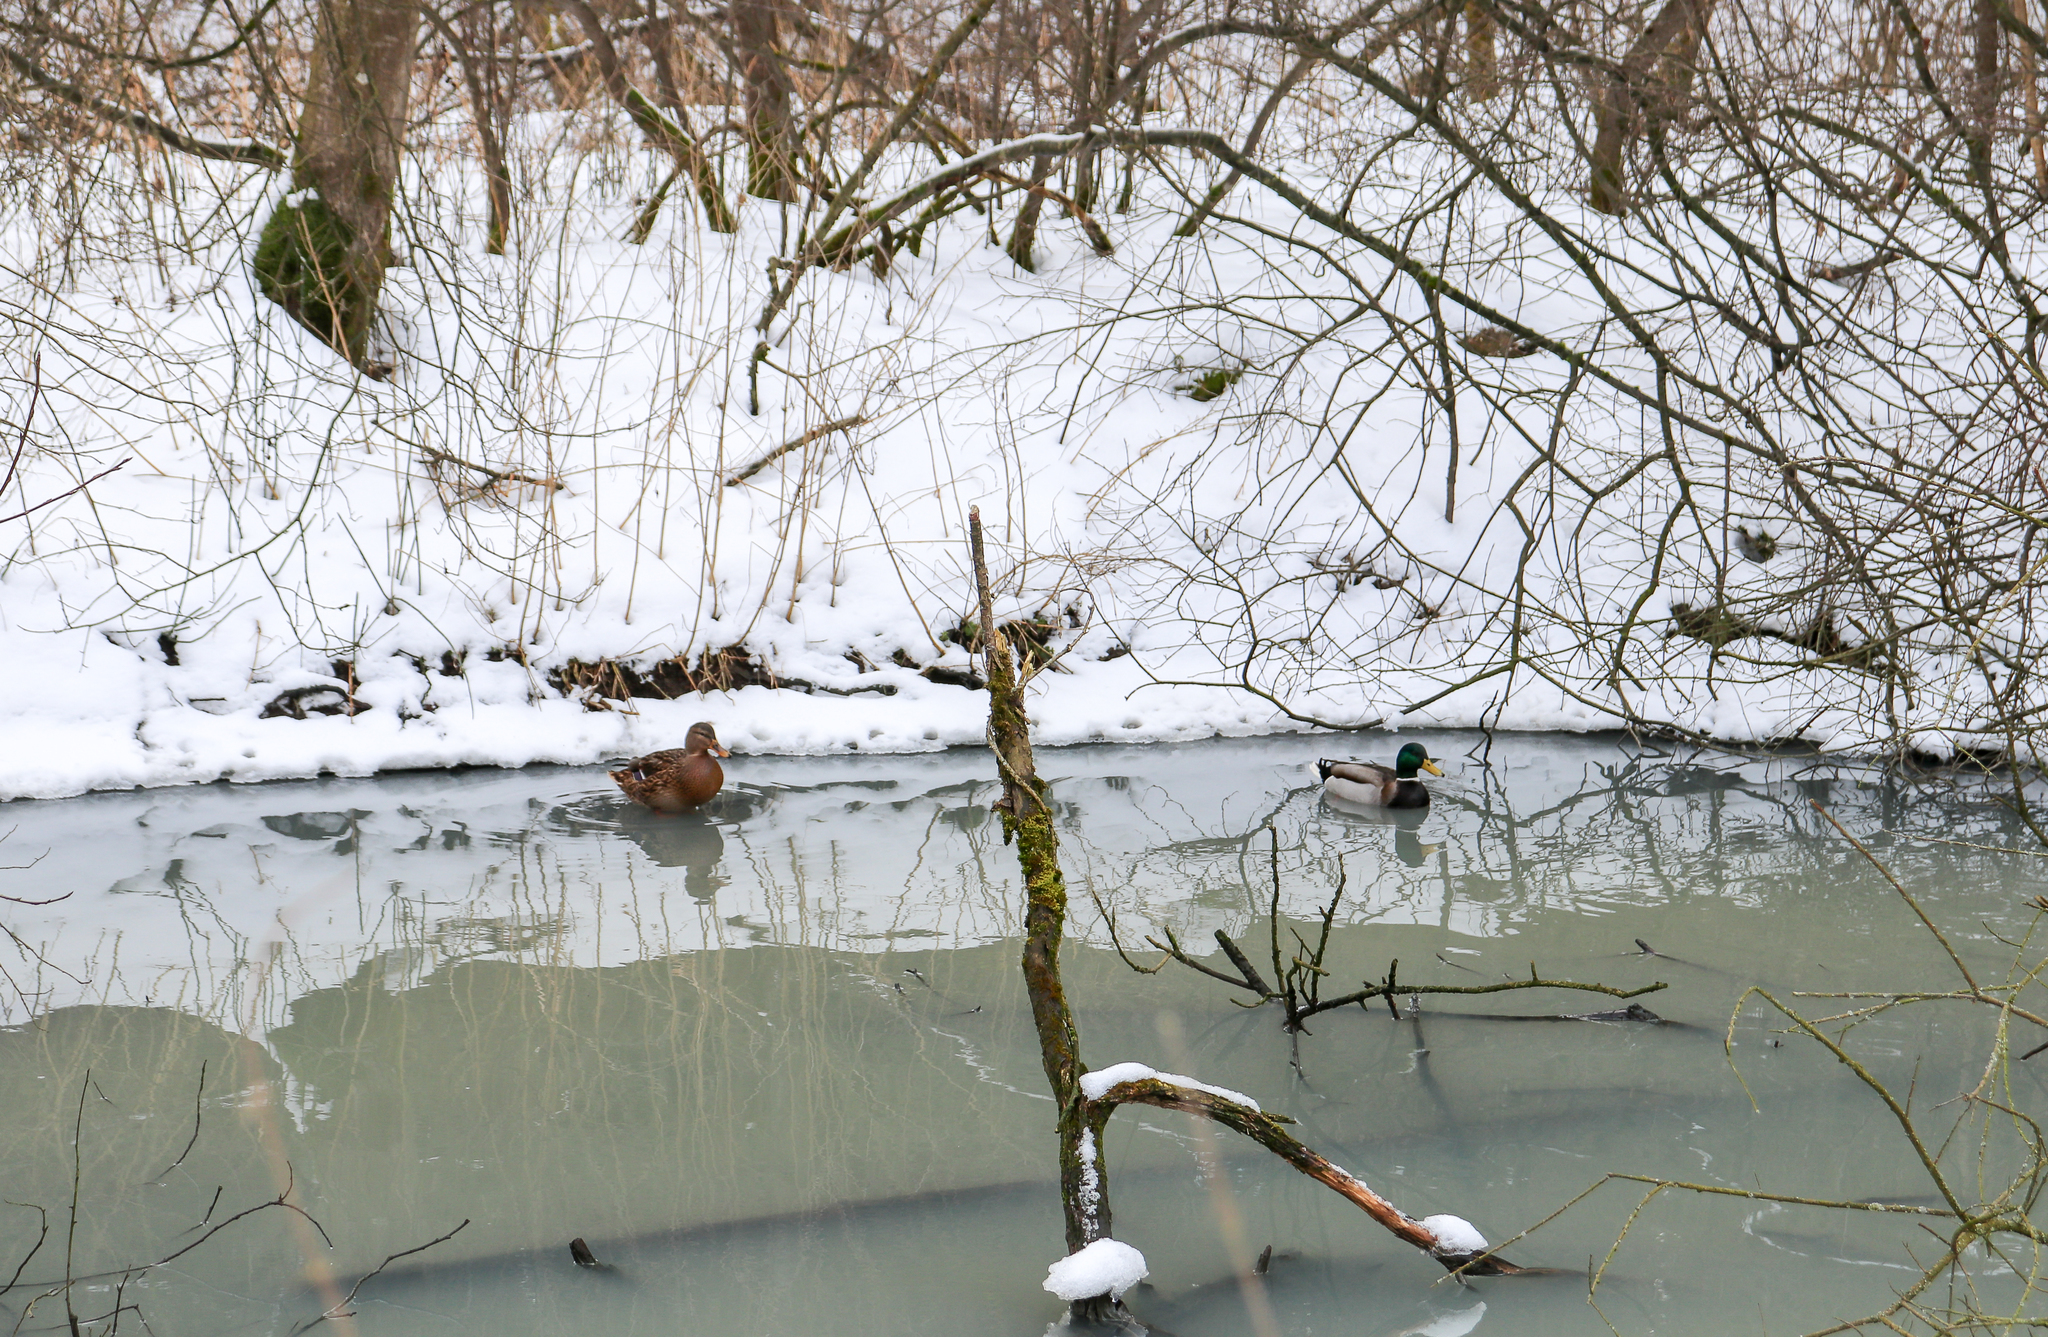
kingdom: Animalia
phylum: Chordata
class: Aves
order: Anseriformes
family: Anatidae
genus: Anas
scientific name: Anas platyrhynchos
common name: Mallard
